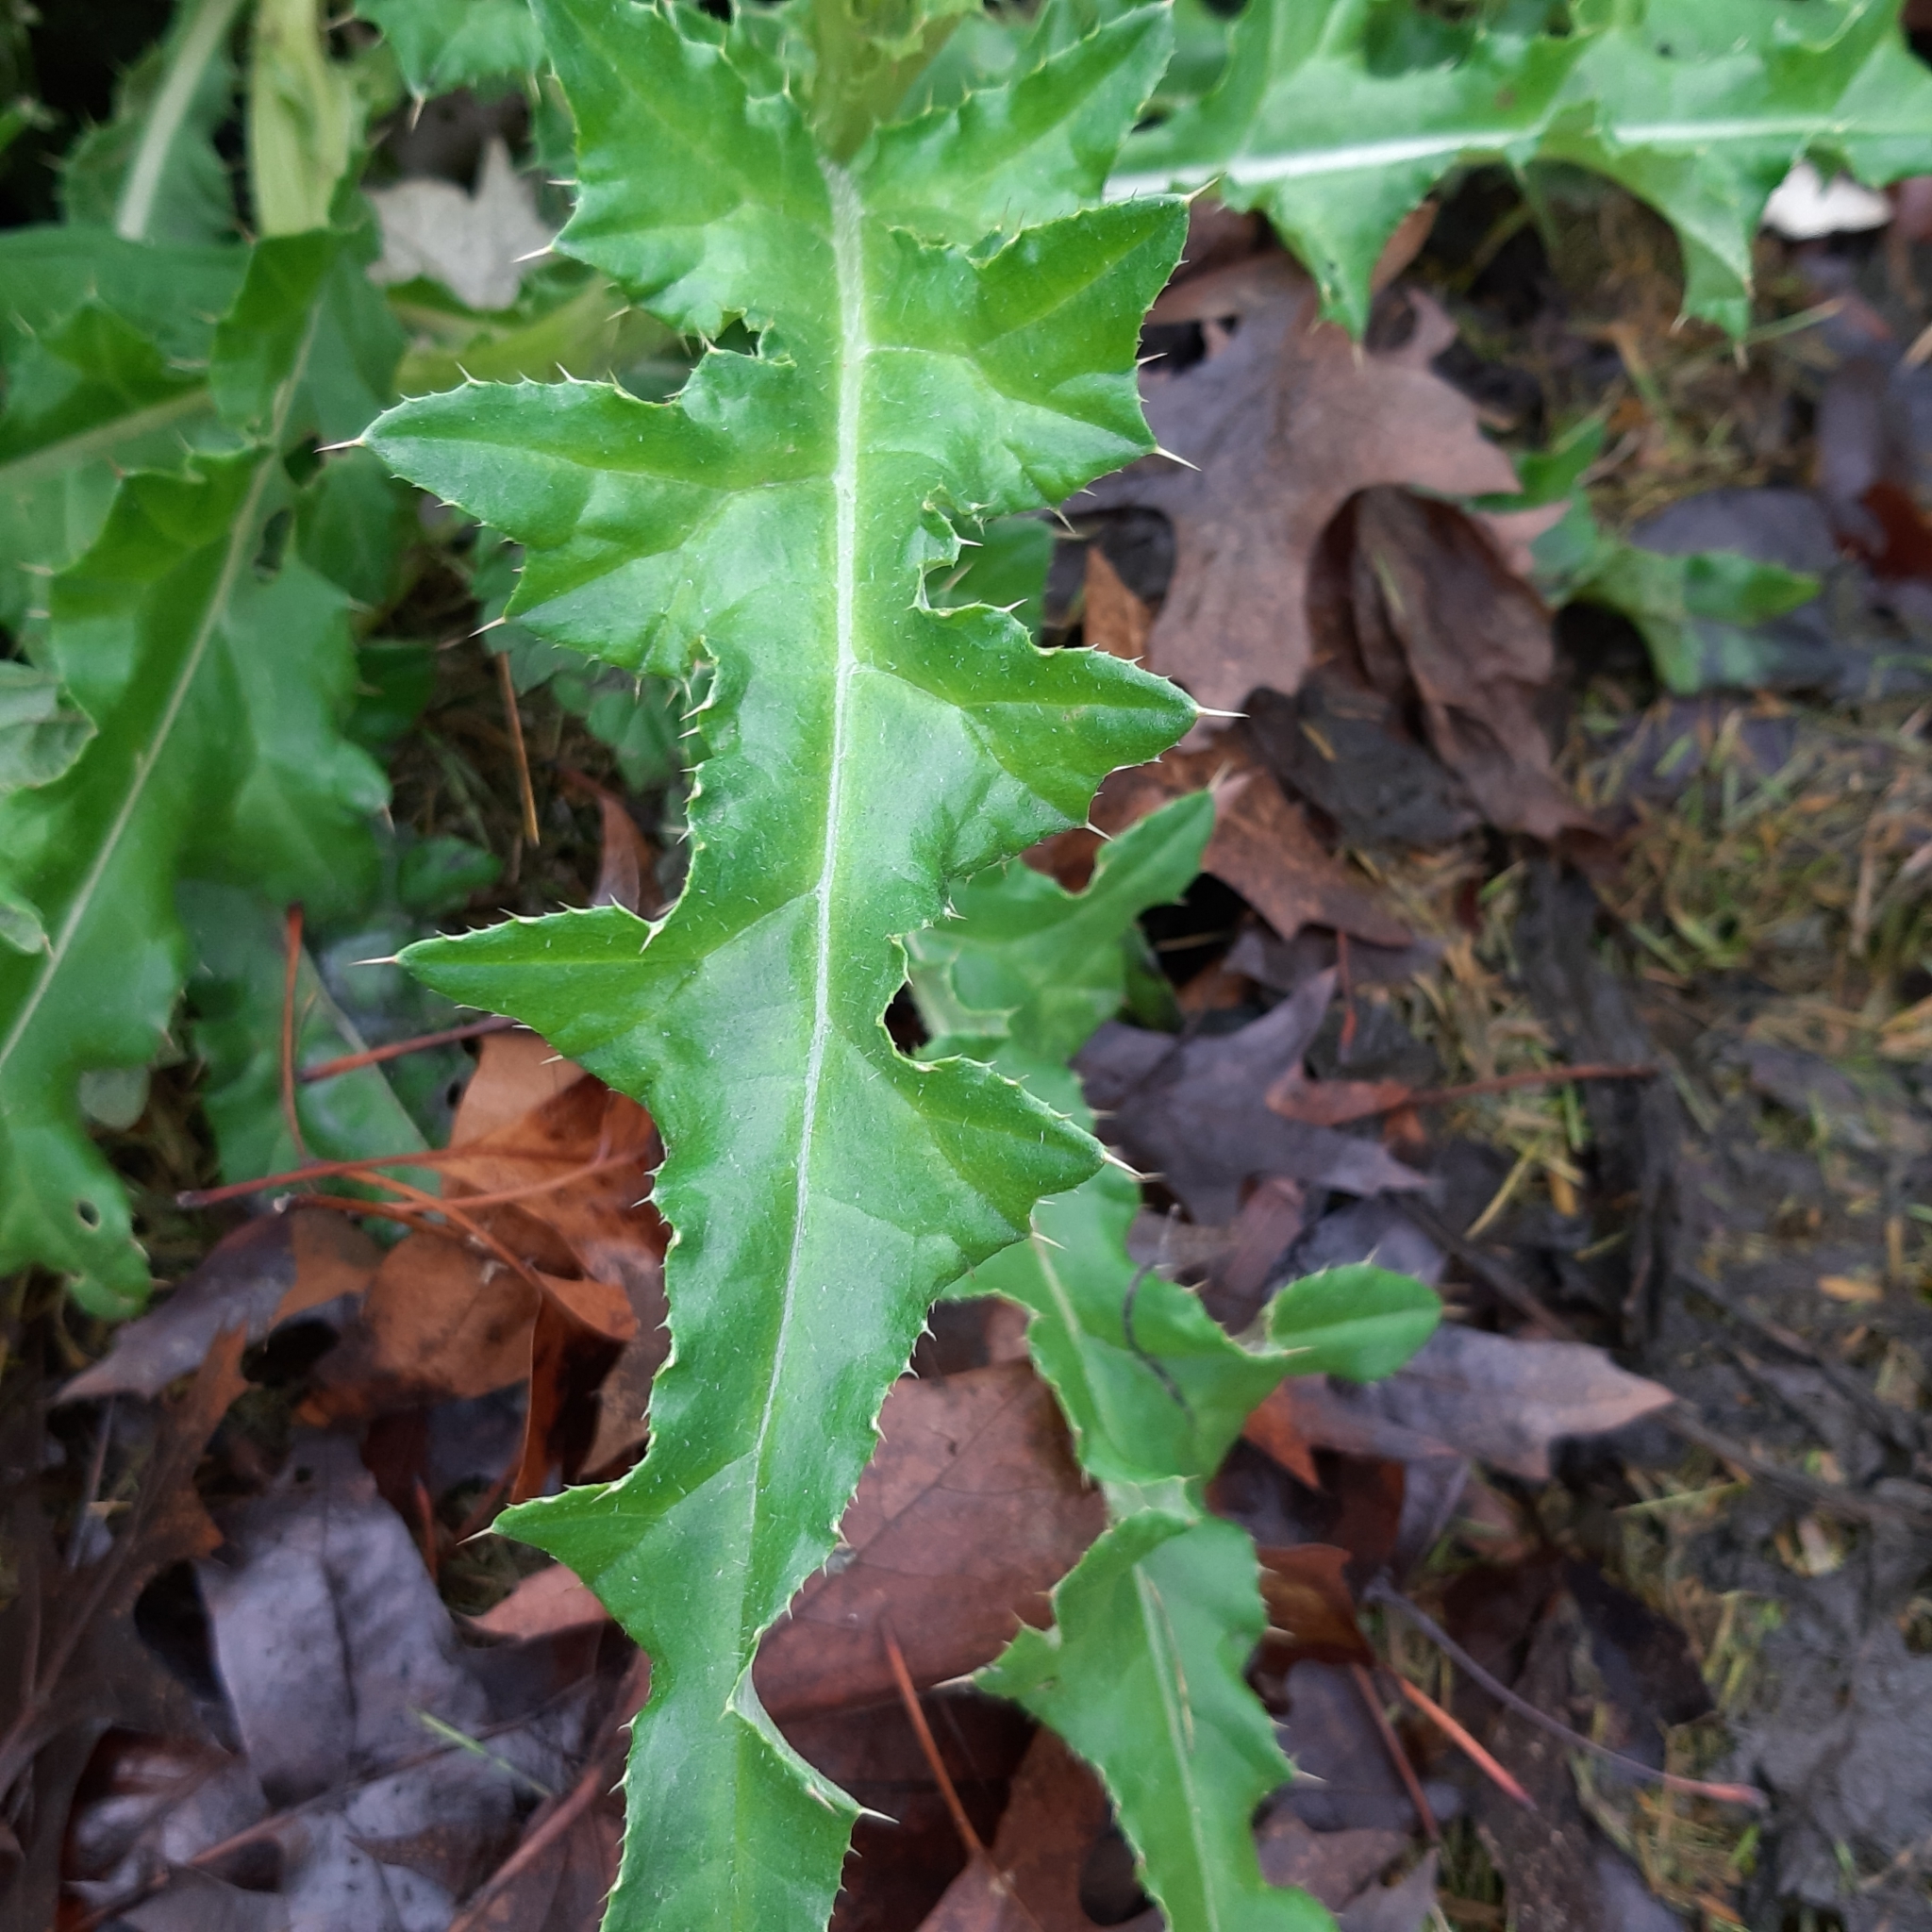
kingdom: Plantae
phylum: Tracheophyta
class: Magnoliopsida
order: Asterales
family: Asteraceae
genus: Cirsium
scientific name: Cirsium arvense
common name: Creeping thistle
